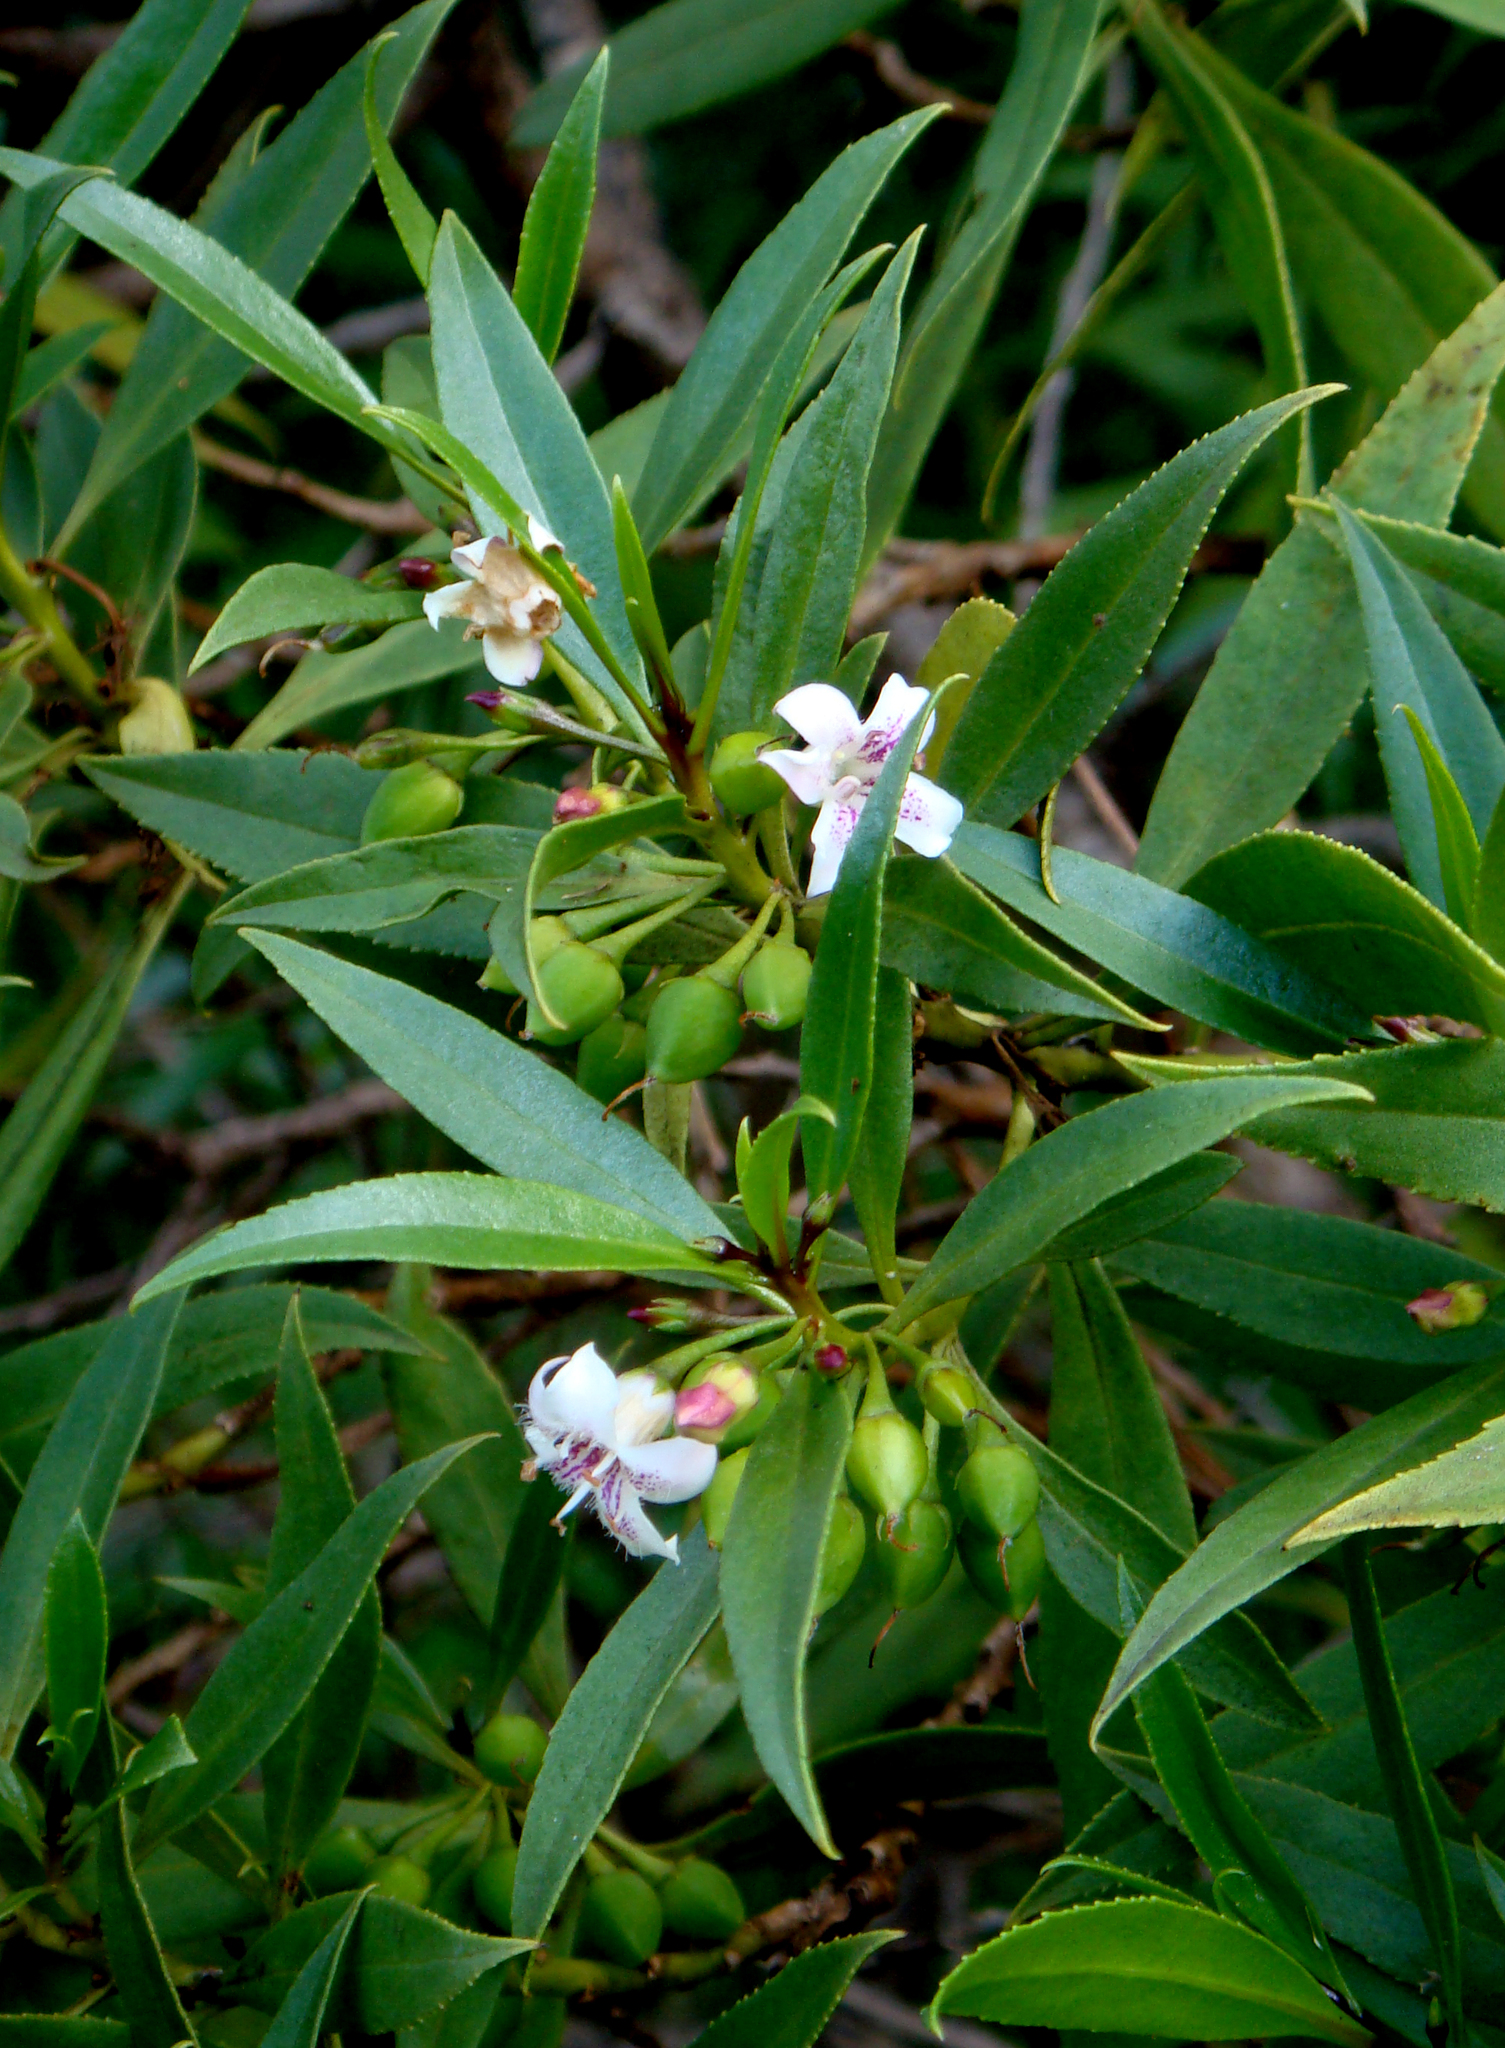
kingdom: Plantae
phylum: Tracheophyta
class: Magnoliopsida
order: Lamiales
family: Scrophulariaceae
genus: Myoporum
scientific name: Myoporum rapense
